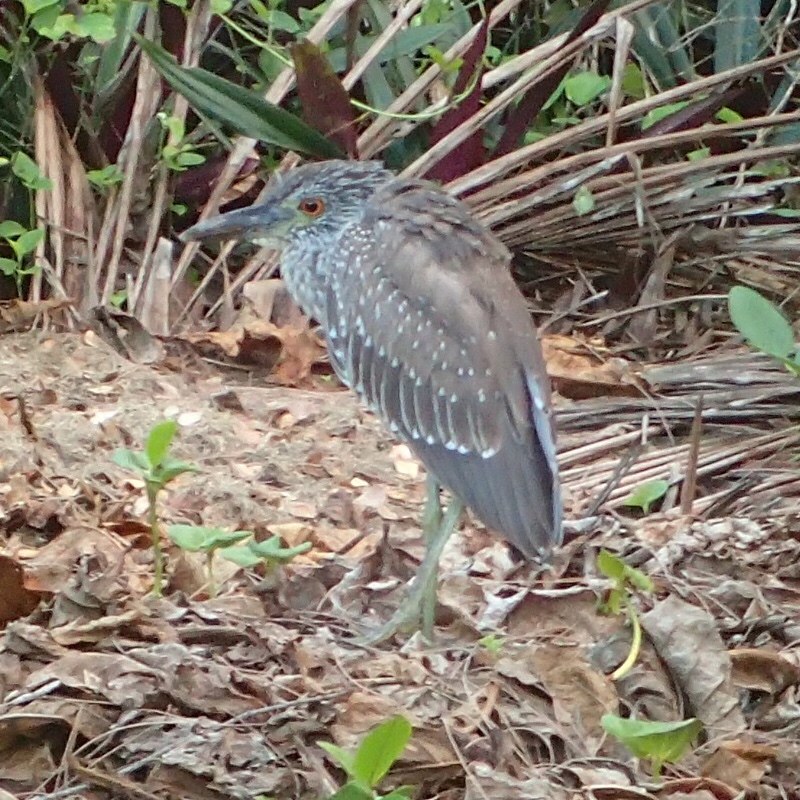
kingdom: Animalia
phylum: Chordata
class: Aves
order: Pelecaniformes
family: Ardeidae
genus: Nyctanassa
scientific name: Nyctanassa violacea
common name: Yellow-crowned night heron
